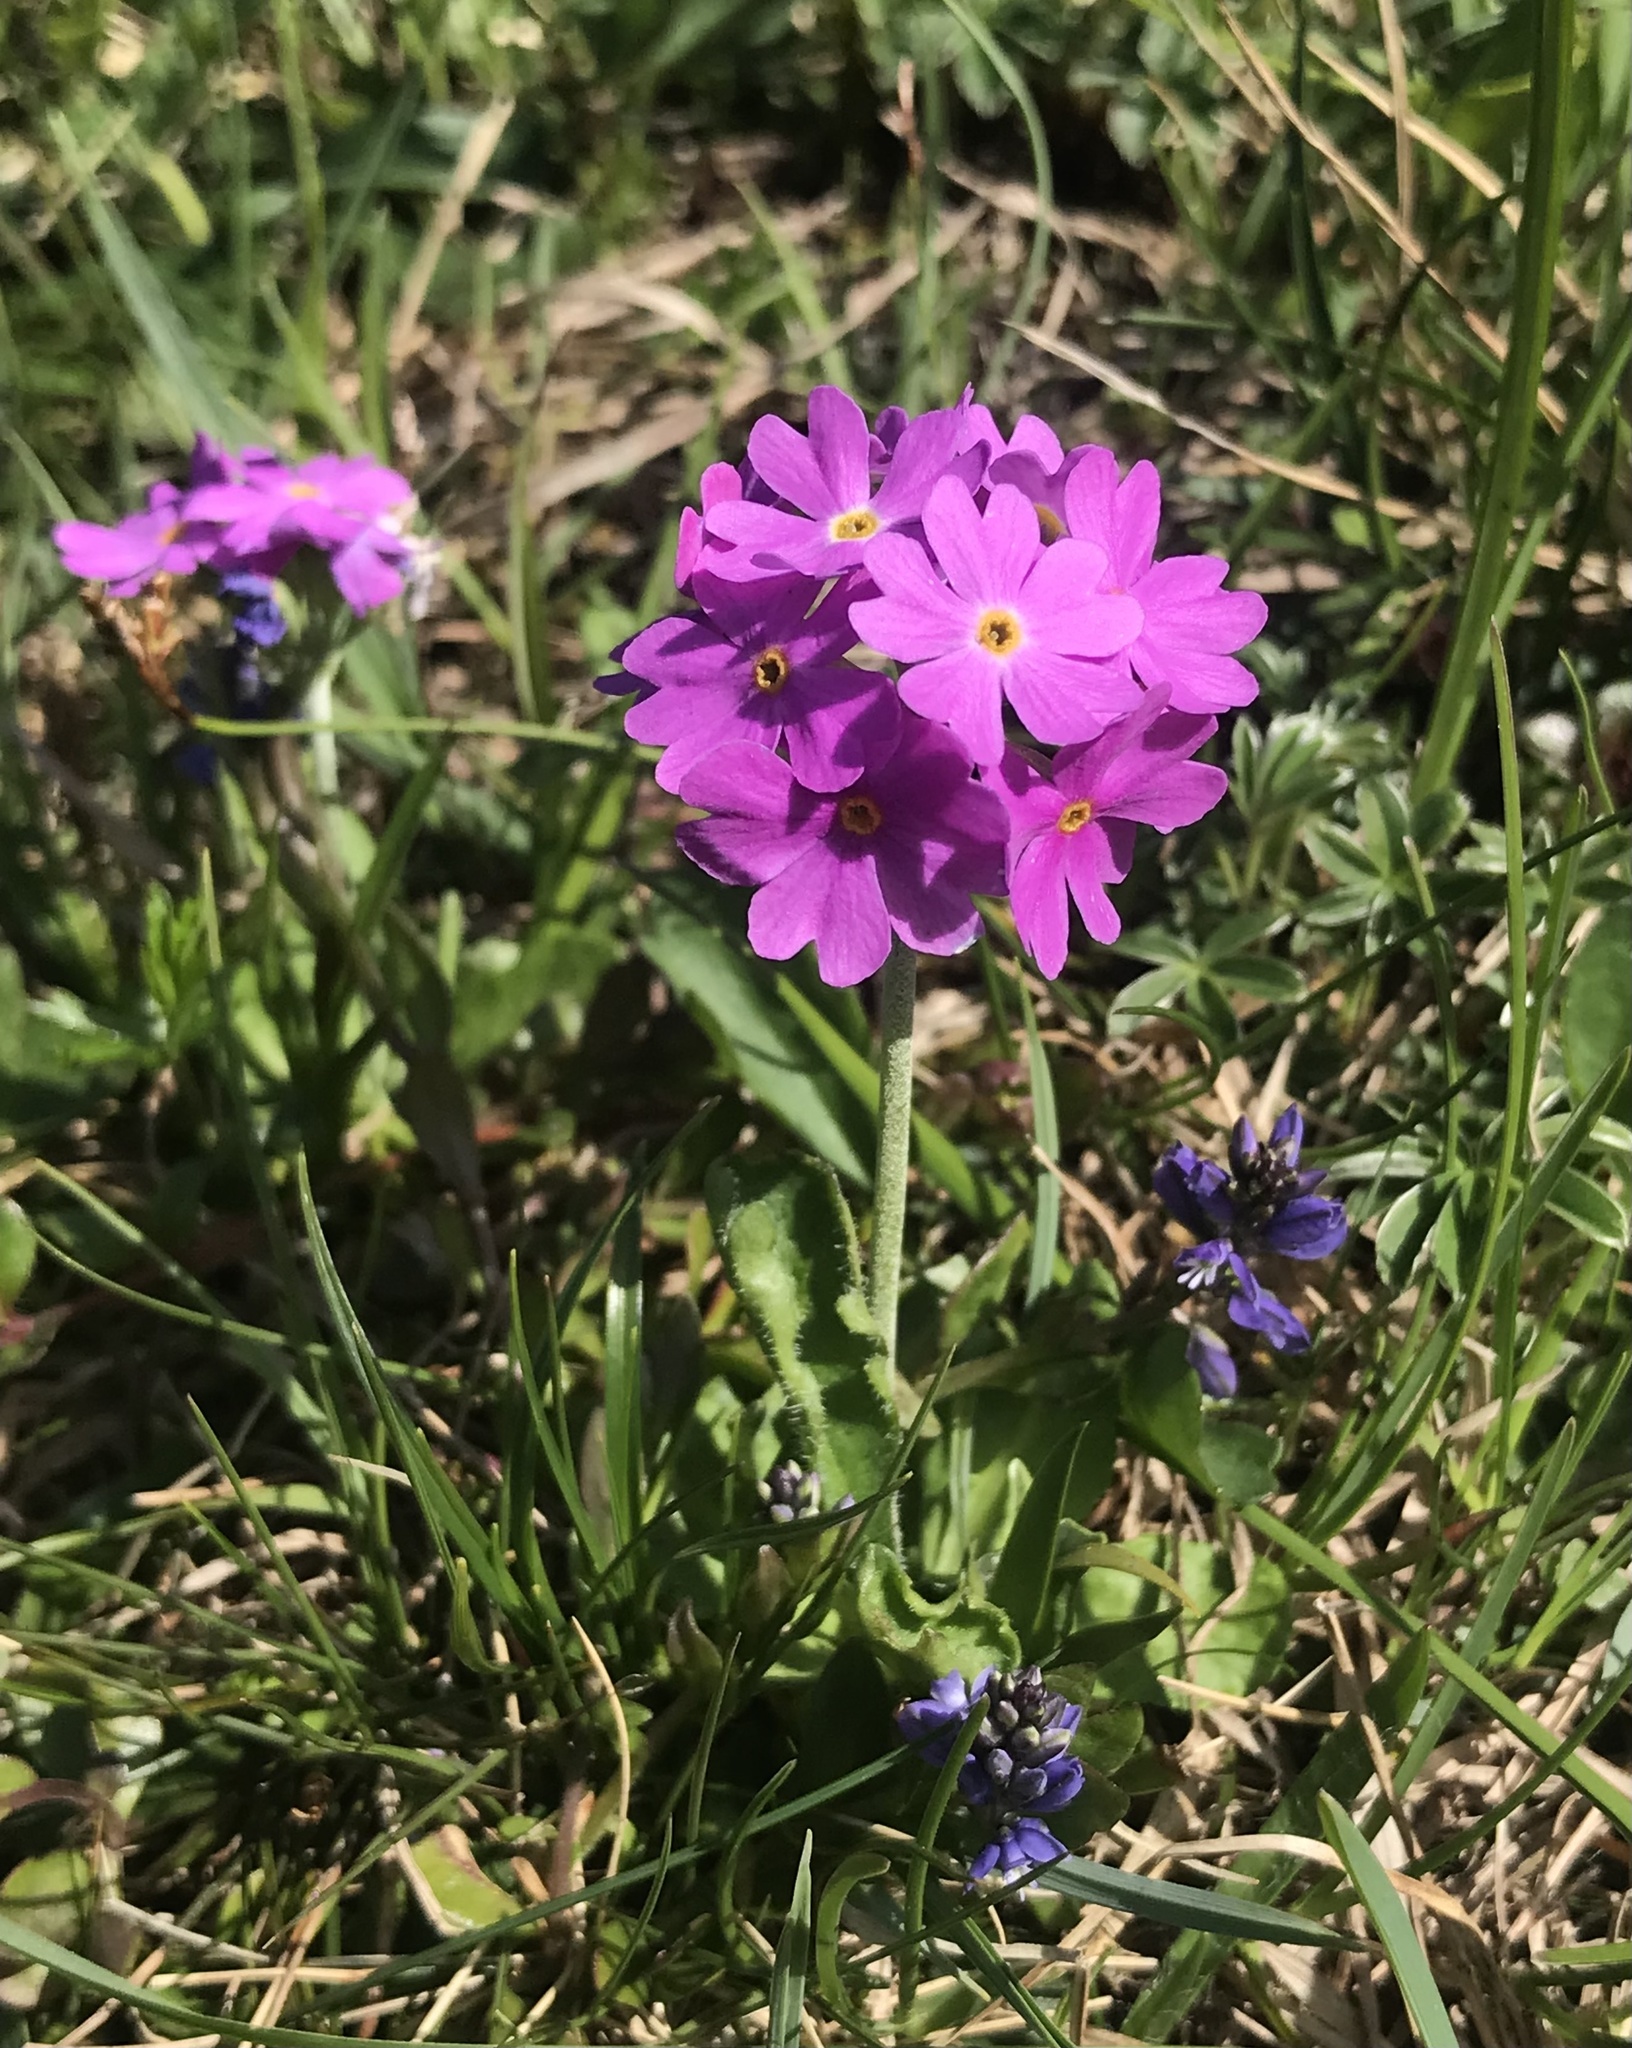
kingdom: Plantae
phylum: Tracheophyta
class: Magnoliopsida
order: Ericales
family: Primulaceae
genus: Primula
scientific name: Primula farinosa
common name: Bird's-eye primrose
